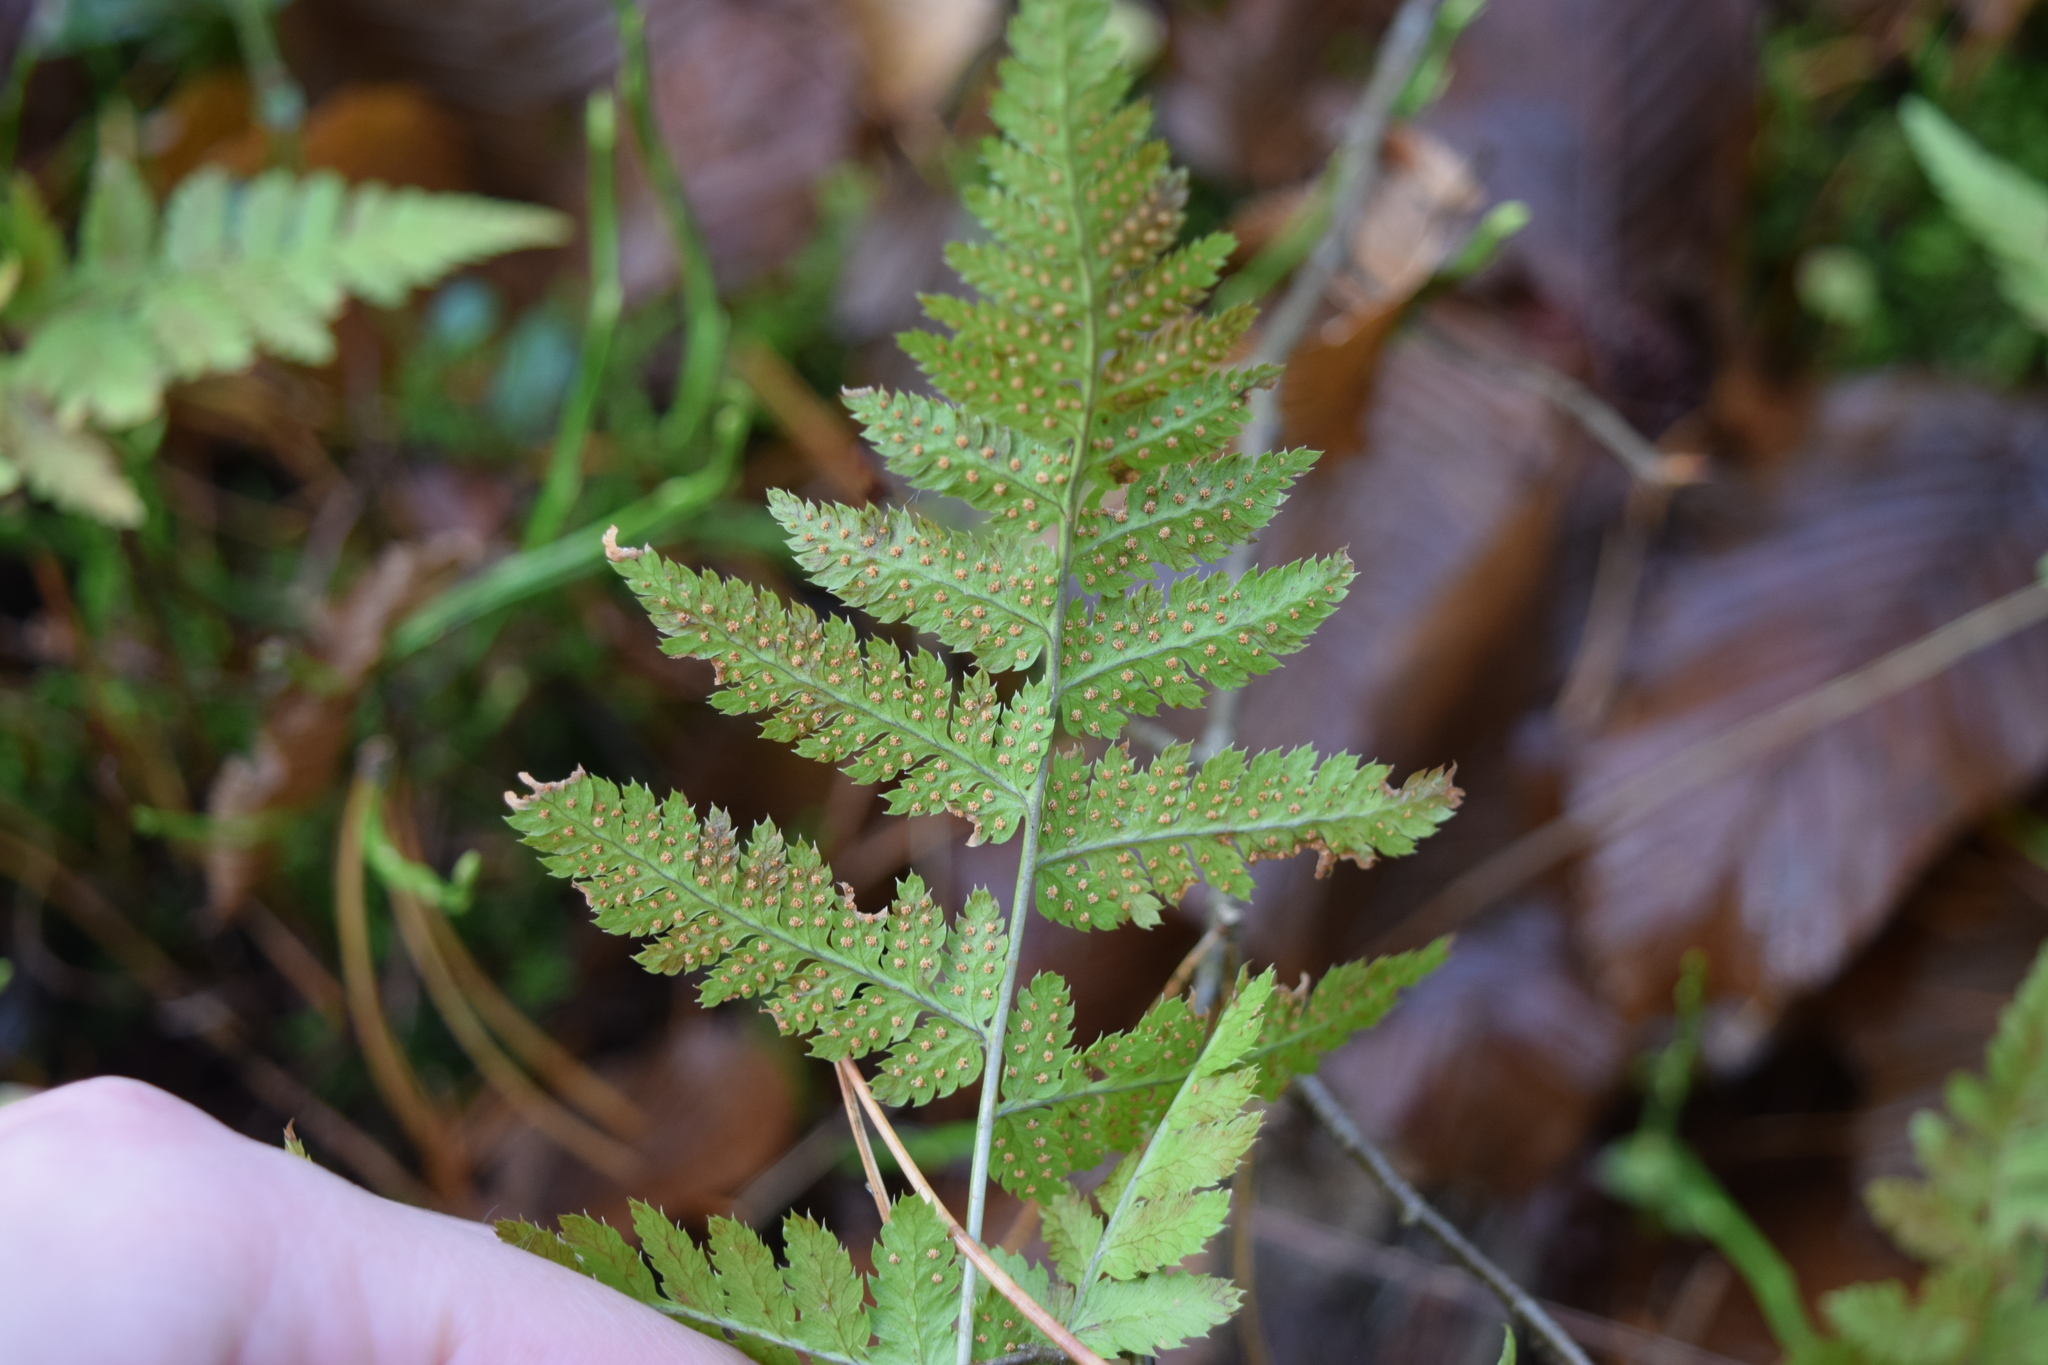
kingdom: Plantae
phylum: Tracheophyta
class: Polypodiopsida
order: Polypodiales
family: Dryopteridaceae
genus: Dryopteris
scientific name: Dryopteris carthusiana
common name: Narrow buckler-fern
